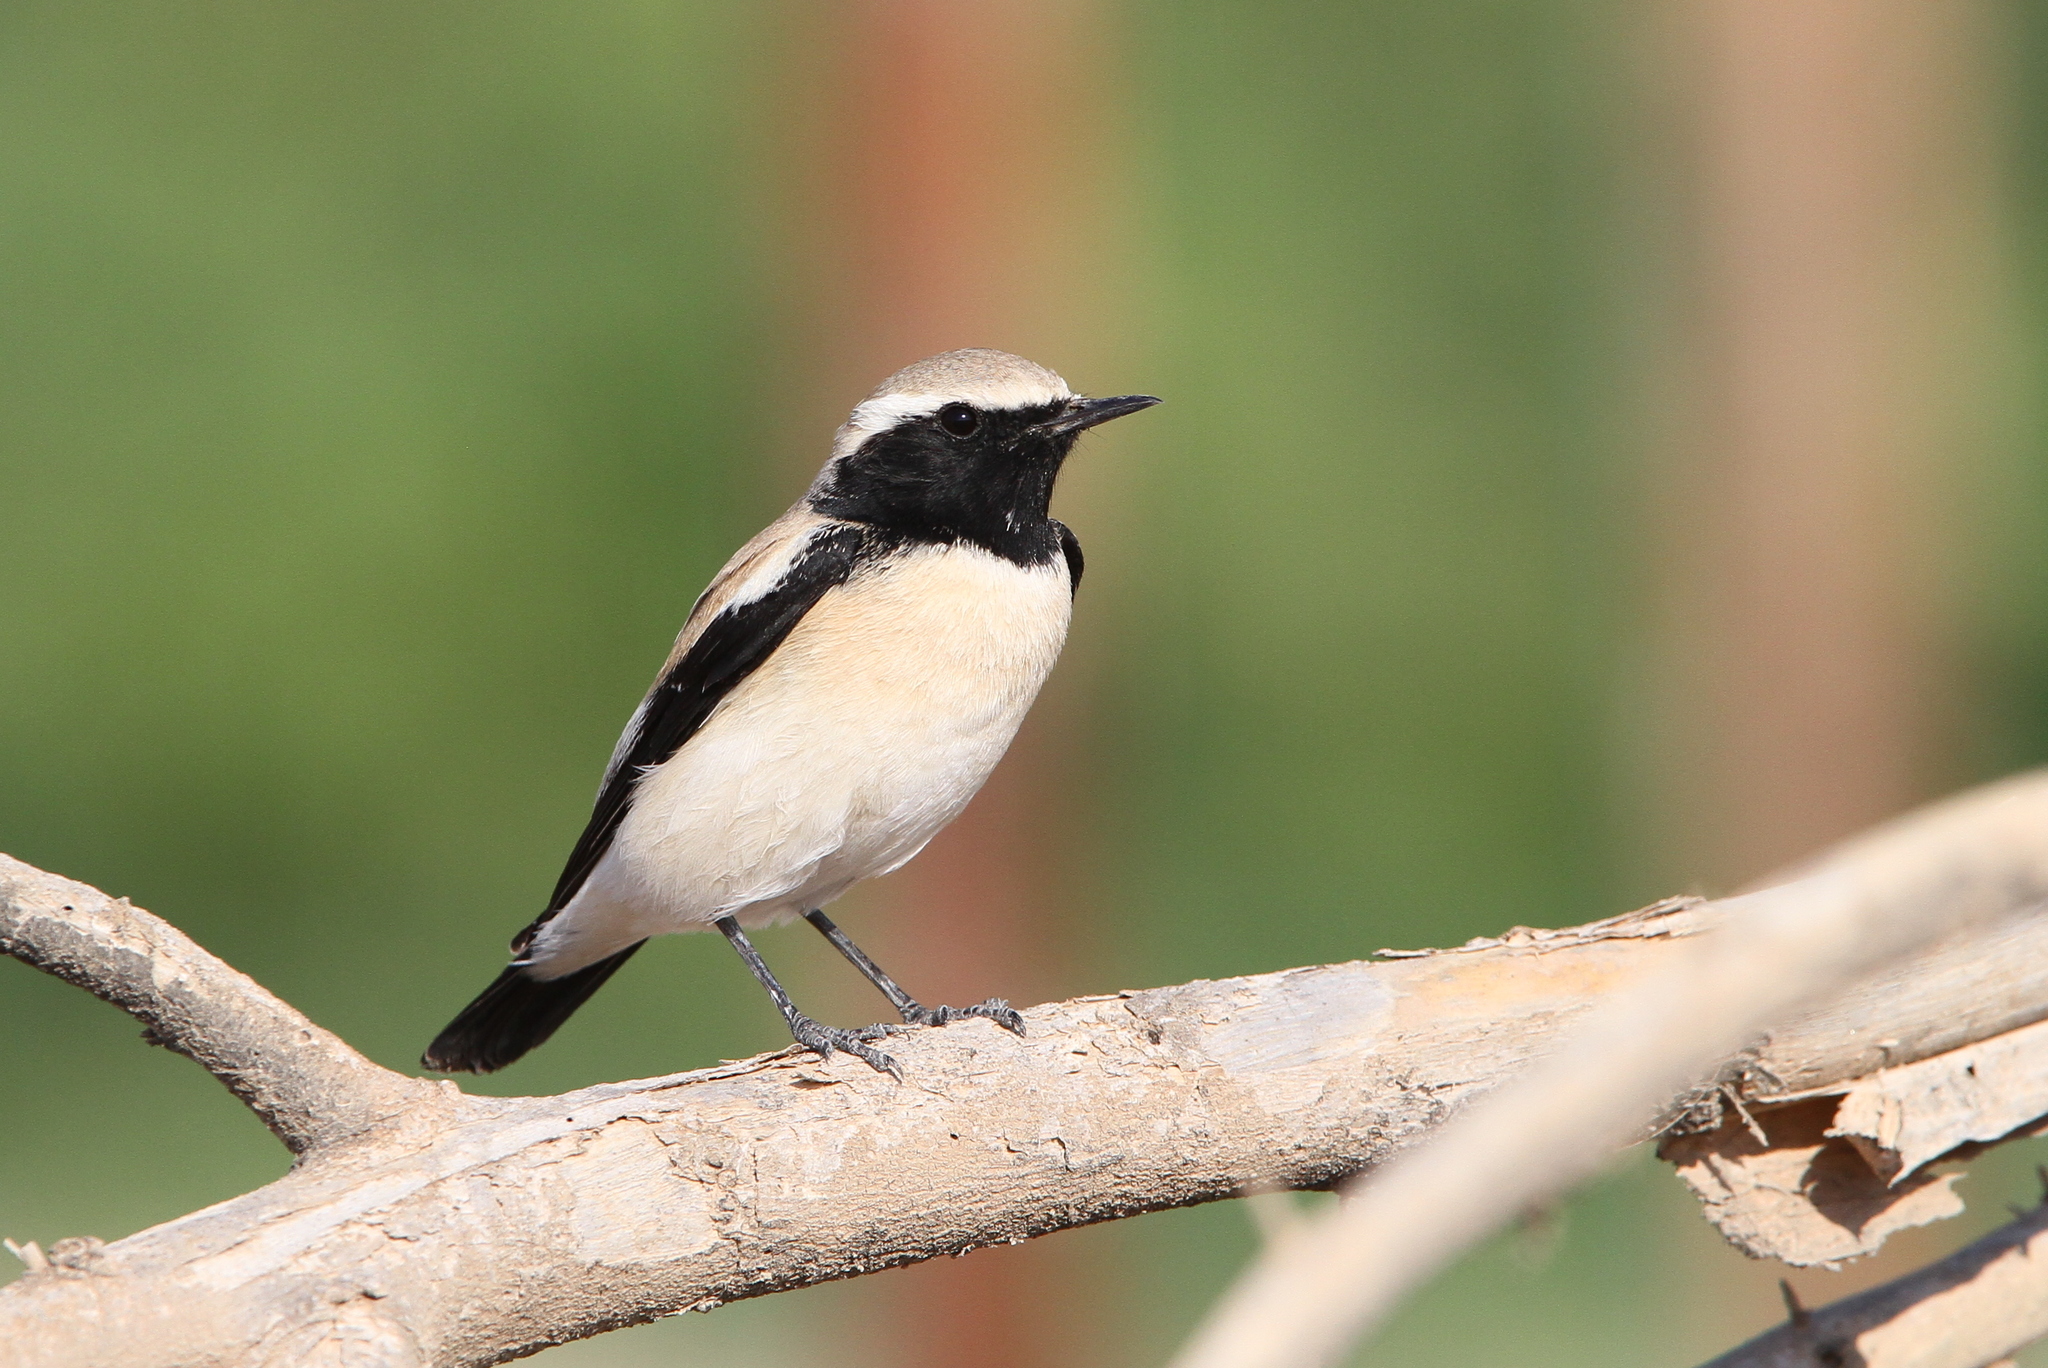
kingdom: Animalia
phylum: Chordata
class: Aves
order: Passeriformes
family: Muscicapidae
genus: Oenanthe
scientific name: Oenanthe deserti
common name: Desert wheatear
